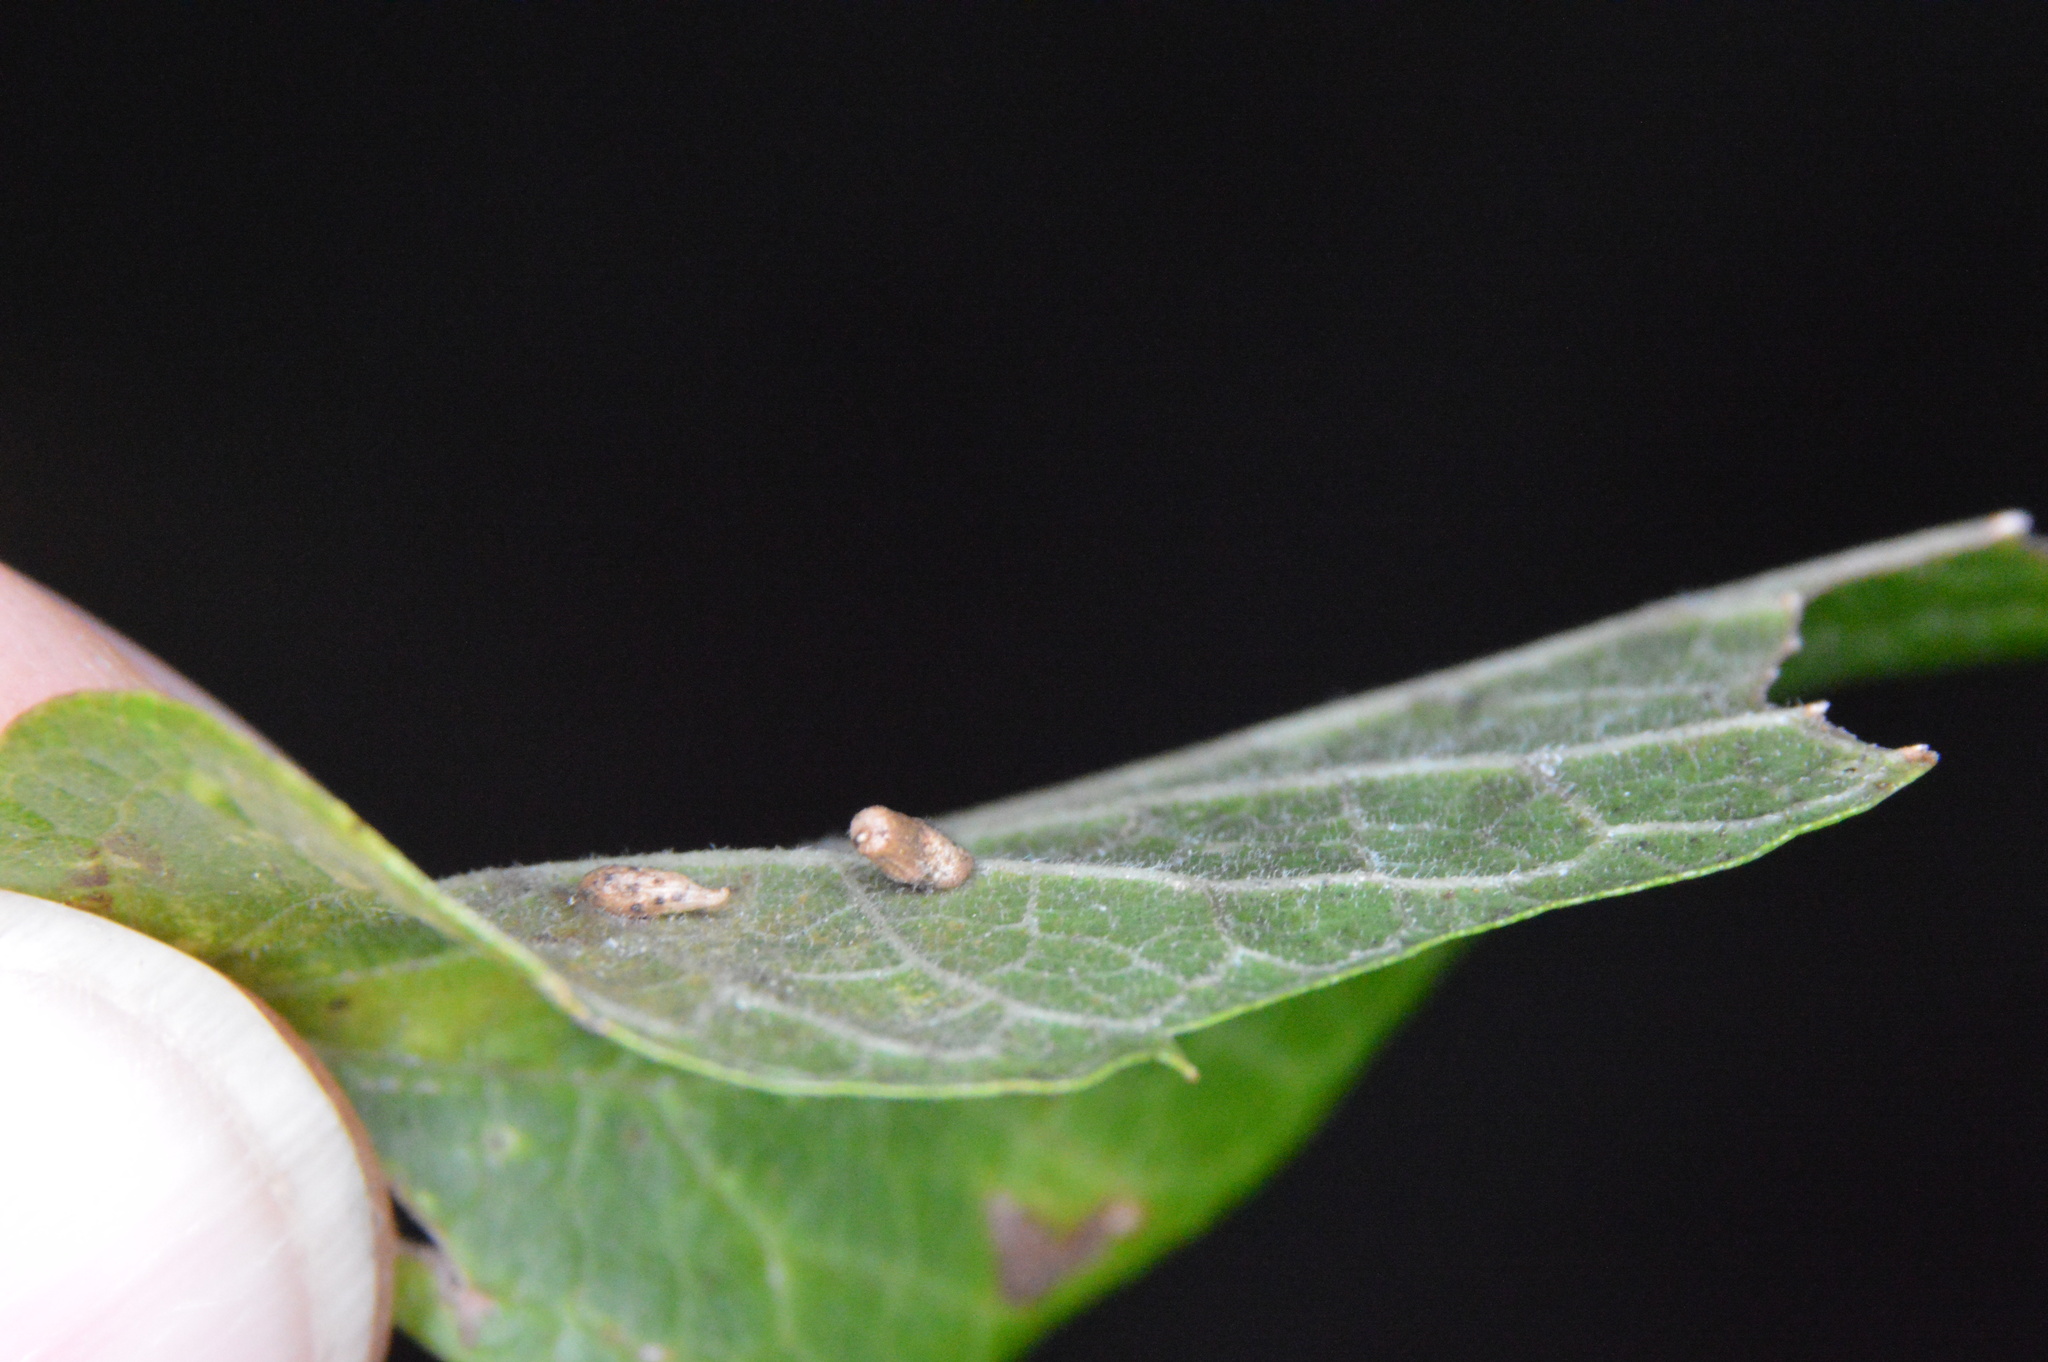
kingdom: Animalia
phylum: Arthropoda
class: Insecta
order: Diptera
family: Cecidomyiidae
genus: Celticecis
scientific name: Celticecis supina
